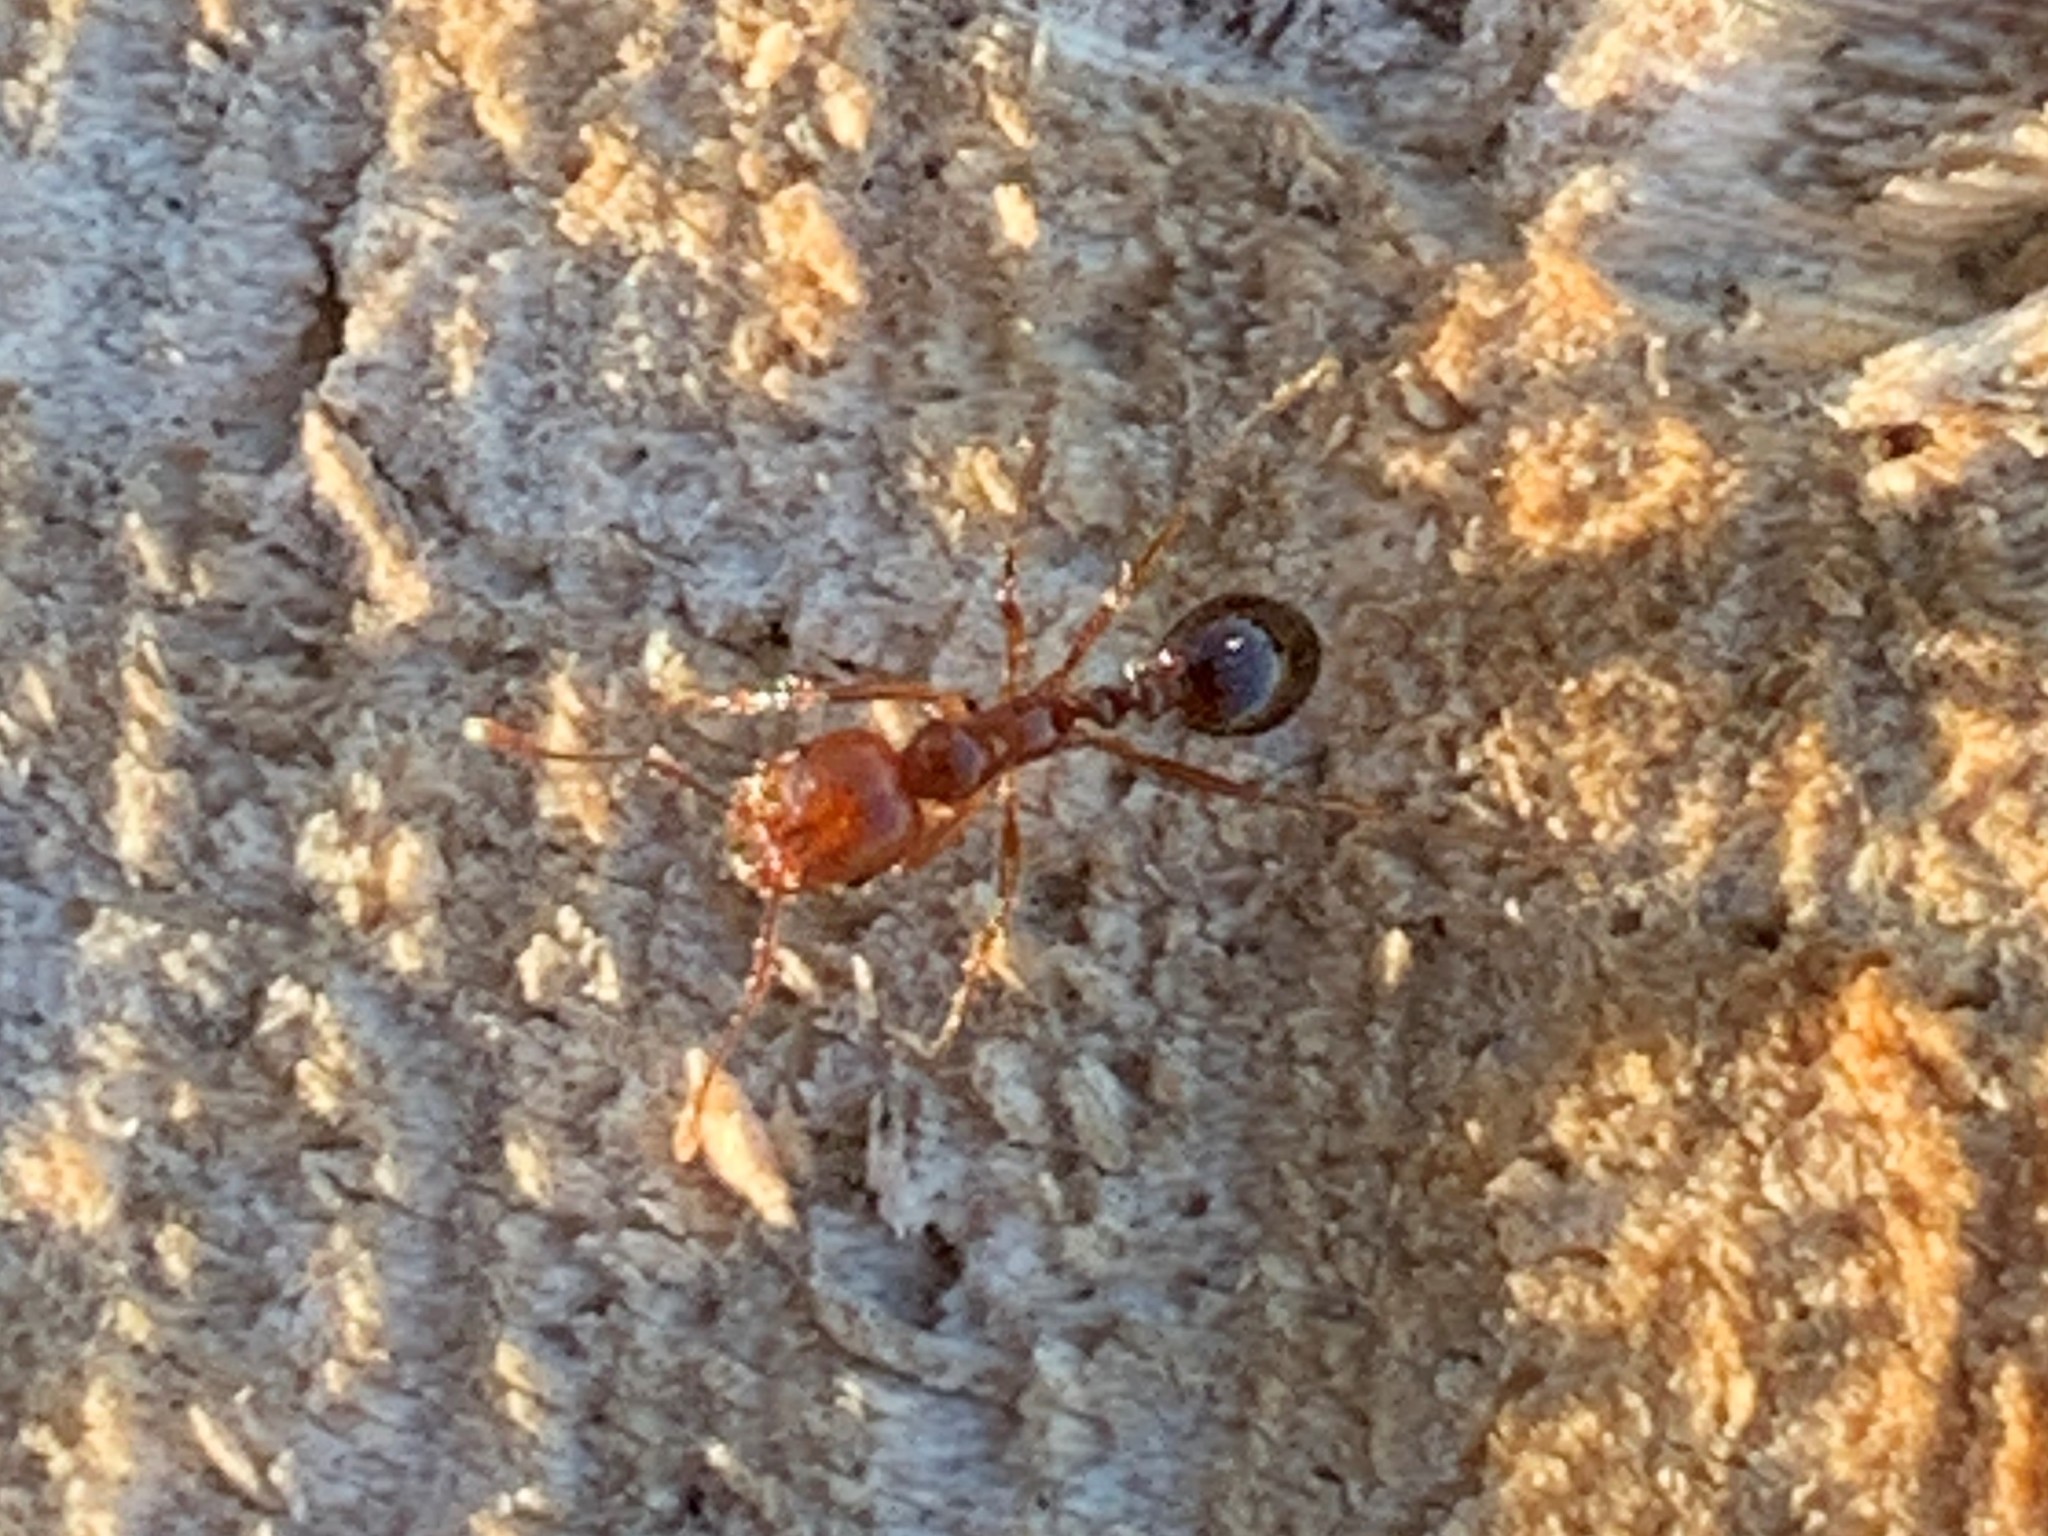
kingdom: Animalia
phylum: Arthropoda
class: Insecta
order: Hymenoptera
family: Formicidae
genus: Solenopsis
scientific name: Solenopsis invicta
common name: Red imported fire ant
